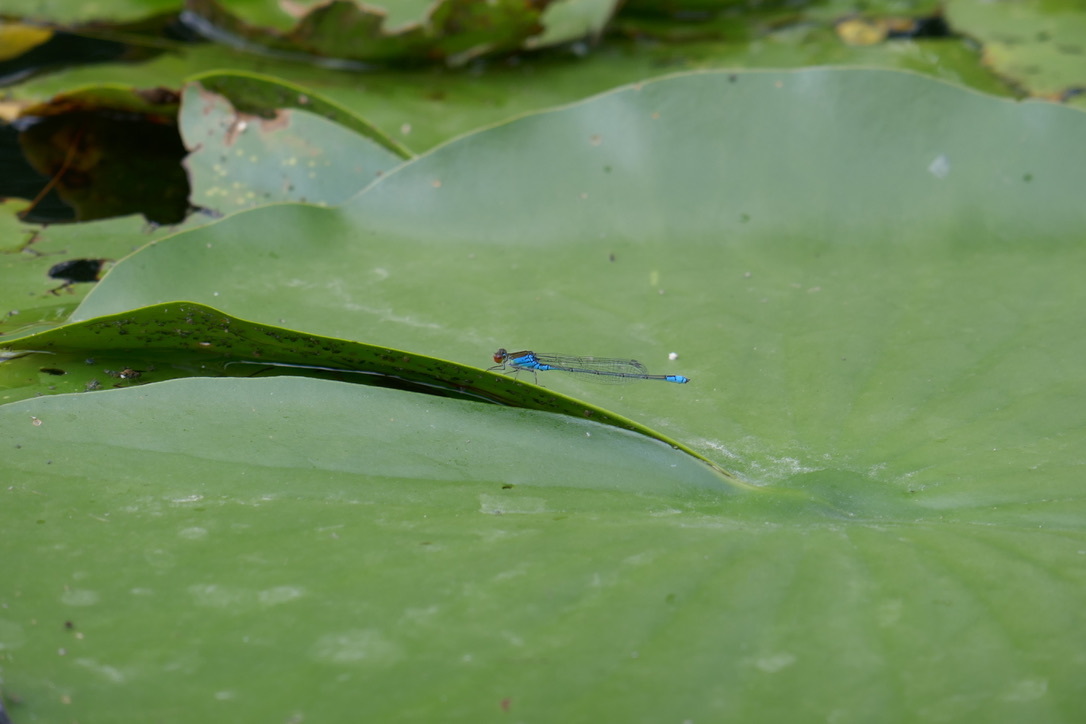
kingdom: Animalia
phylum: Arthropoda
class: Insecta
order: Odonata
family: Coenagrionidae
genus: Erythromma
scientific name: Erythromma viridulum
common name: Small red-eyed damselfly
